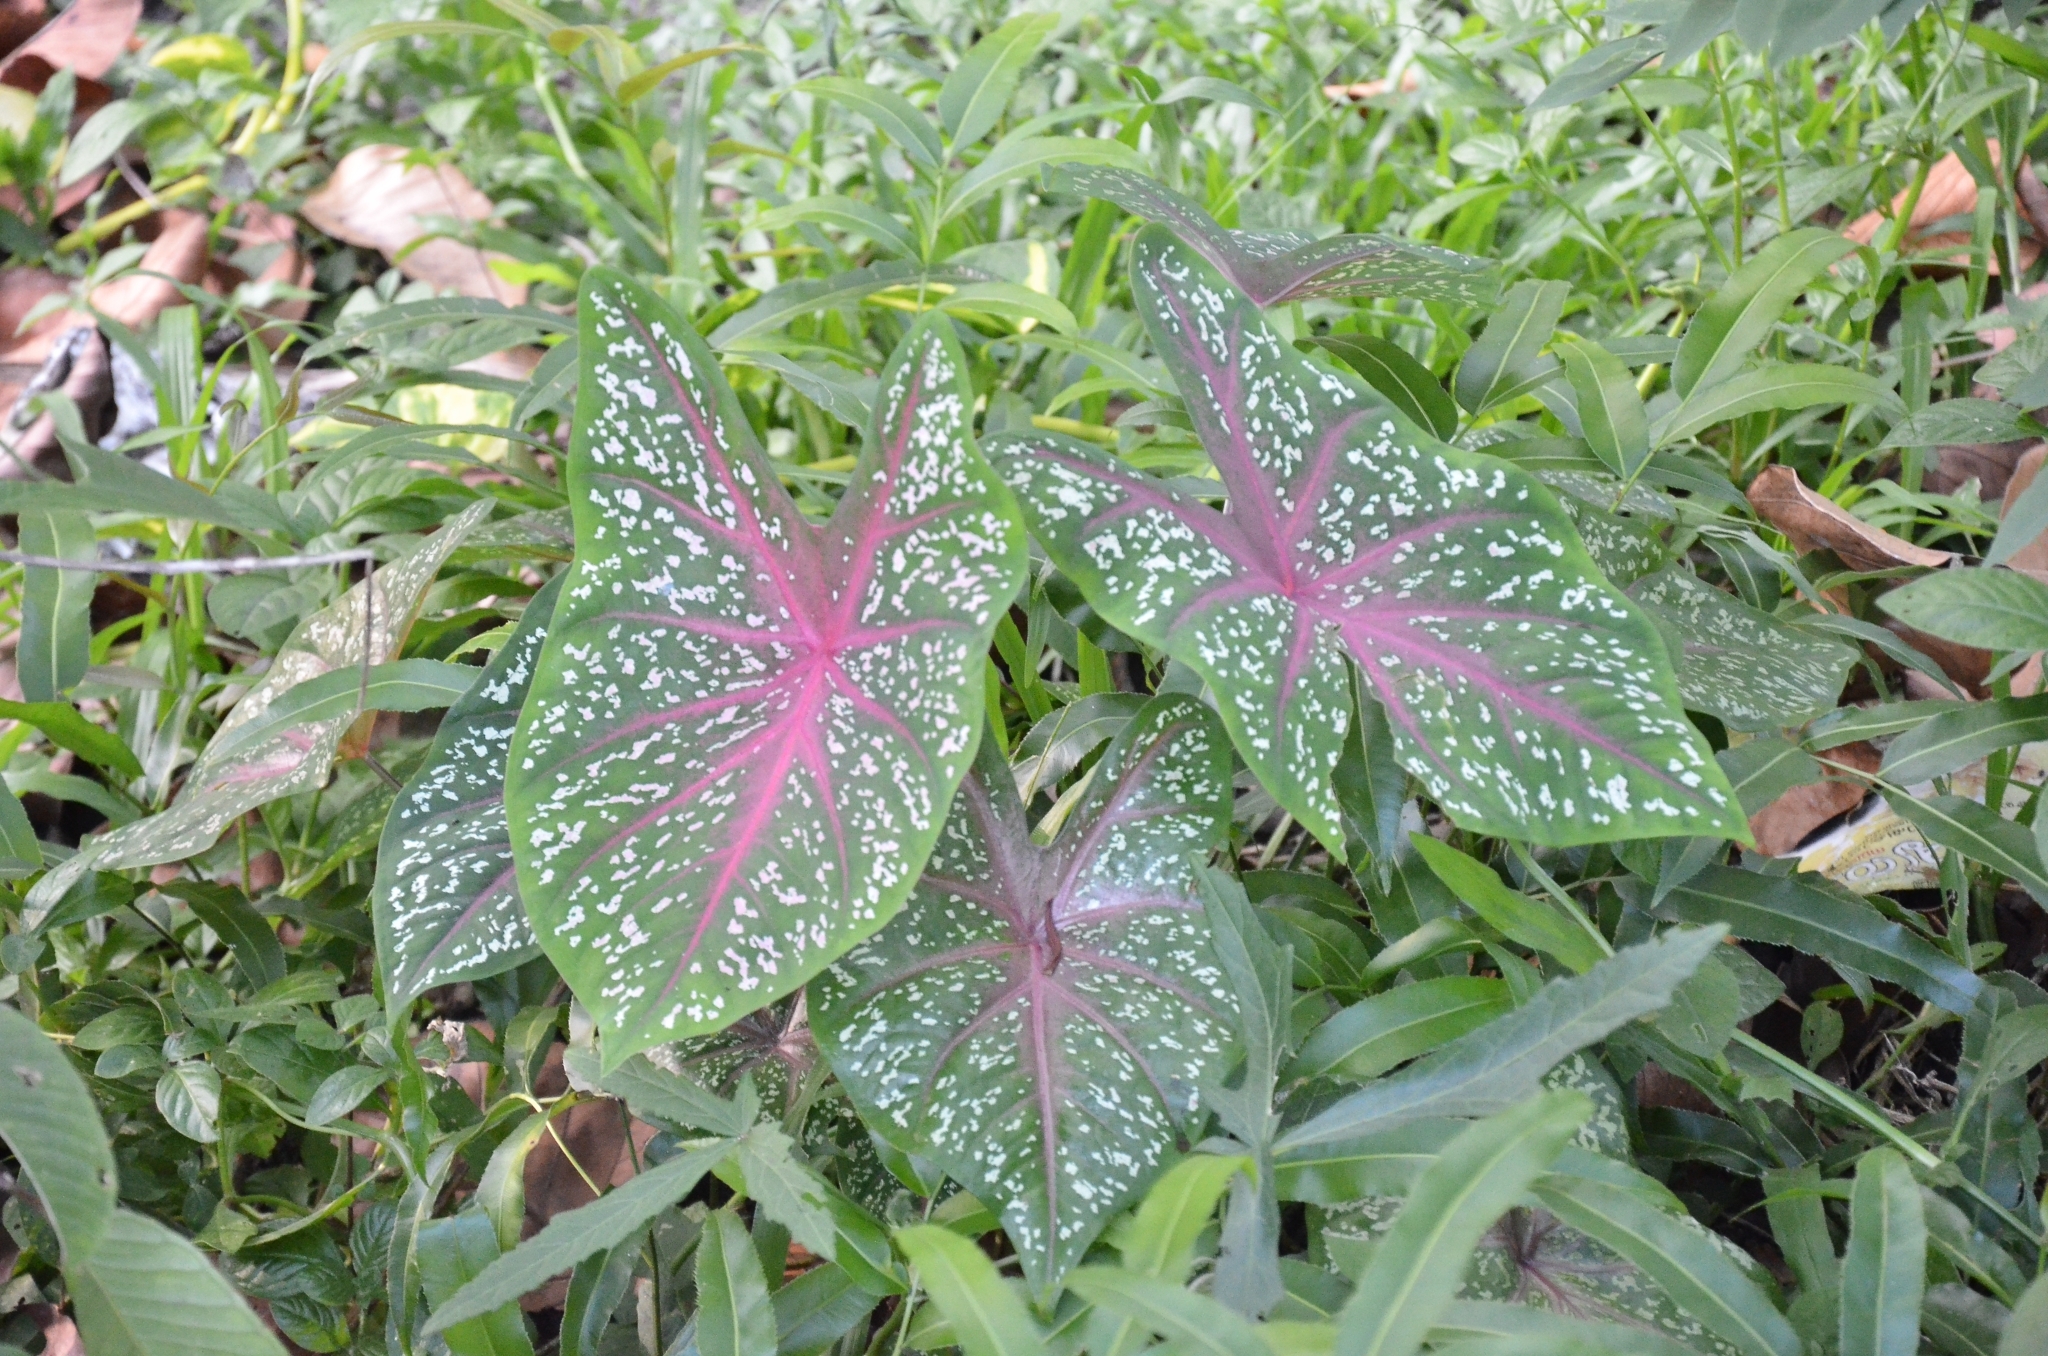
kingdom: Plantae
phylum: Tracheophyta
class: Liliopsida
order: Alismatales
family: Araceae
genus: Caladium
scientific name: Caladium bicolor
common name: Artist's pallet
